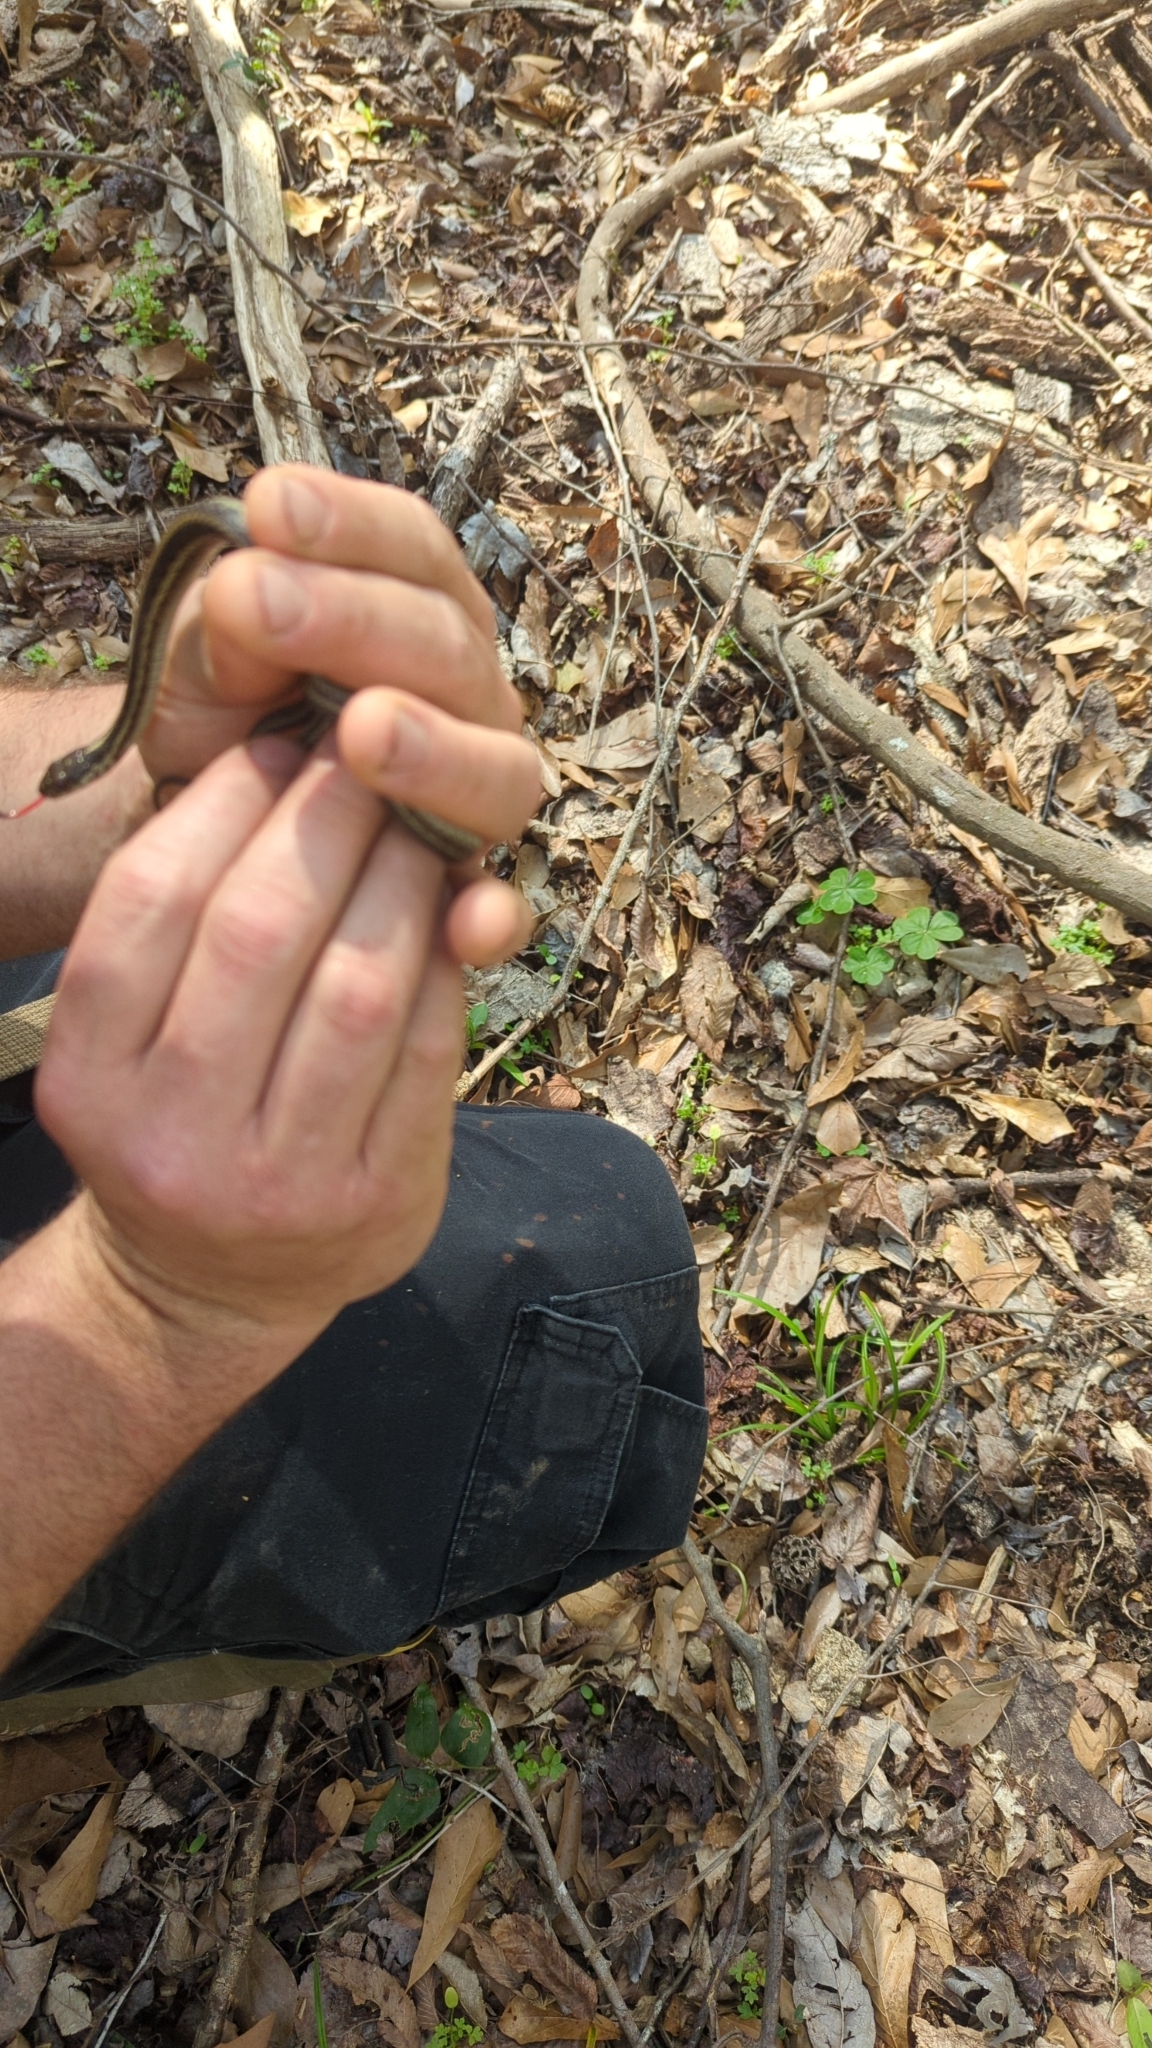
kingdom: Animalia
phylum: Chordata
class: Squamata
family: Colubridae
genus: Thamnophis
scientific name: Thamnophis sirtalis
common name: Common garter snake
